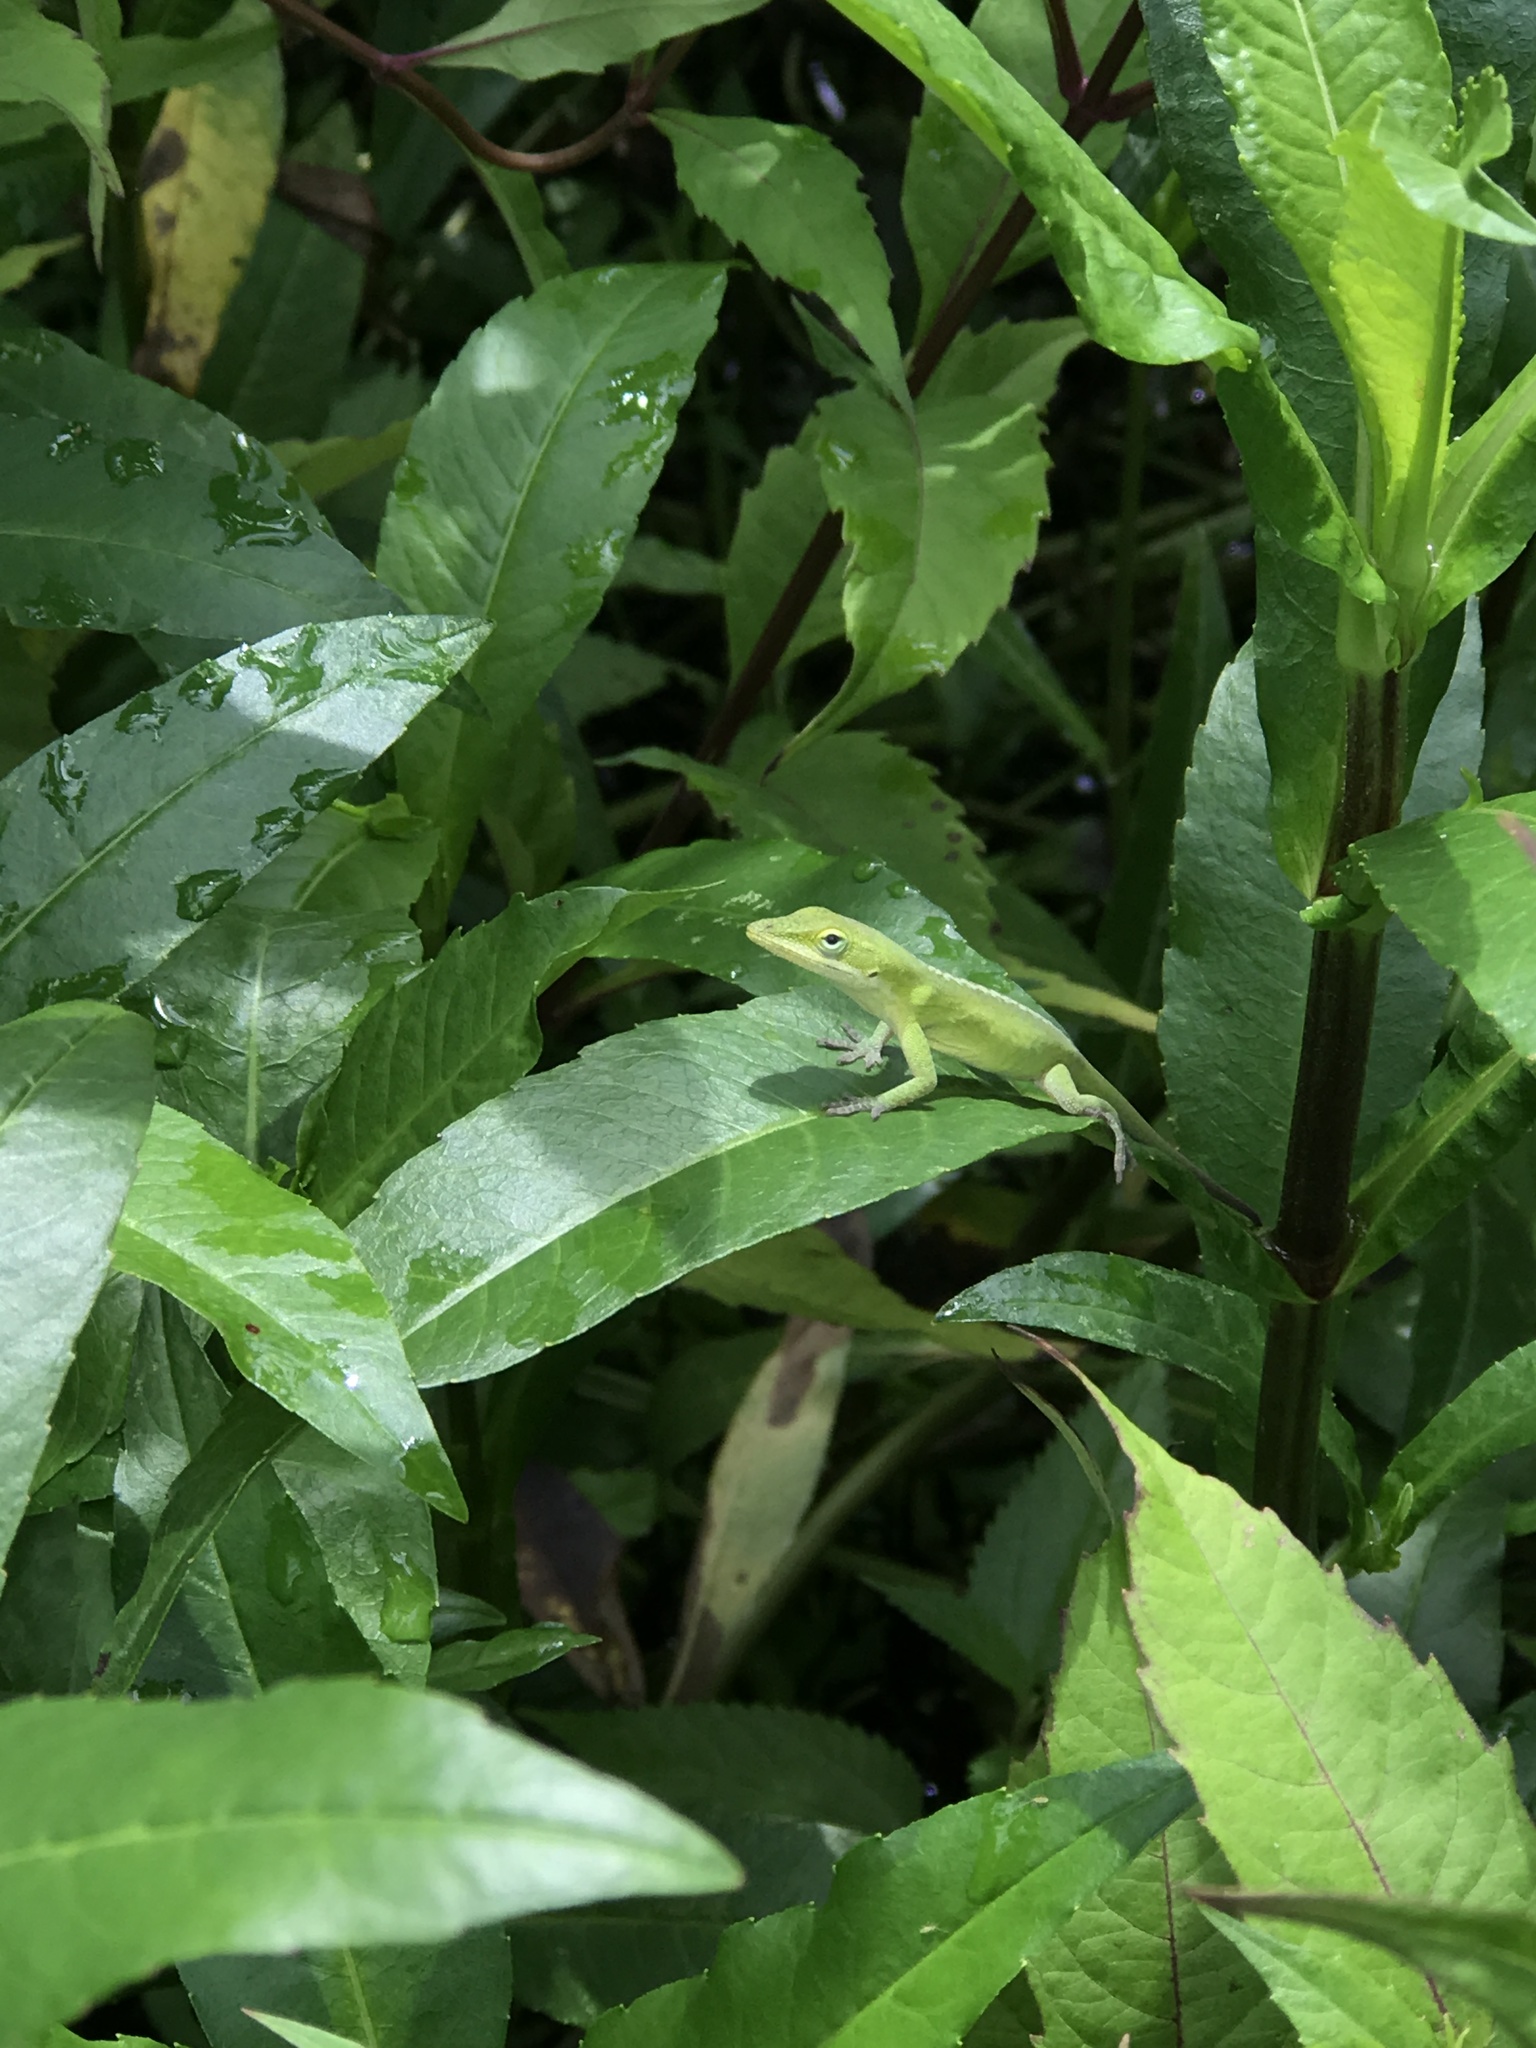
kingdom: Animalia
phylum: Chordata
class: Squamata
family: Dactyloidae
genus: Anolis
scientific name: Anolis carolinensis
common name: Green anole
